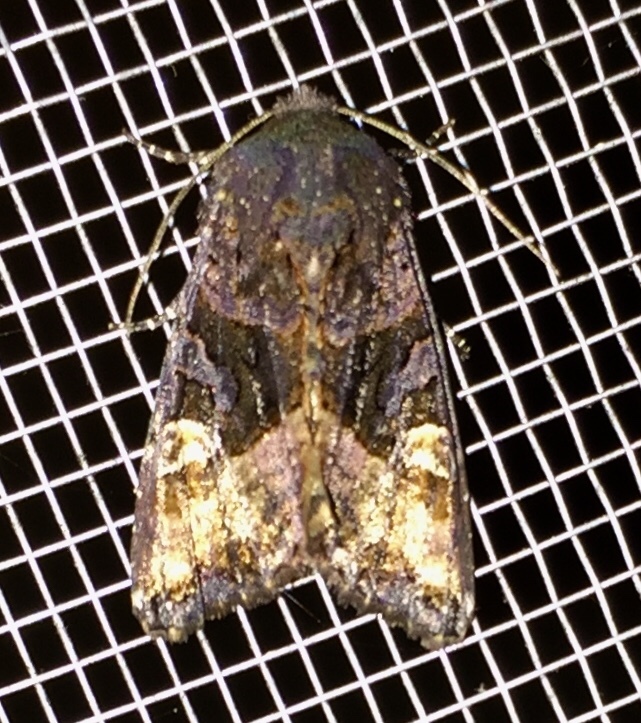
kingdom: Animalia
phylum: Arthropoda
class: Insecta
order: Lepidoptera
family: Noctuidae
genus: Euplexia
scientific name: Euplexia benesimilis
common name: American angle shades
